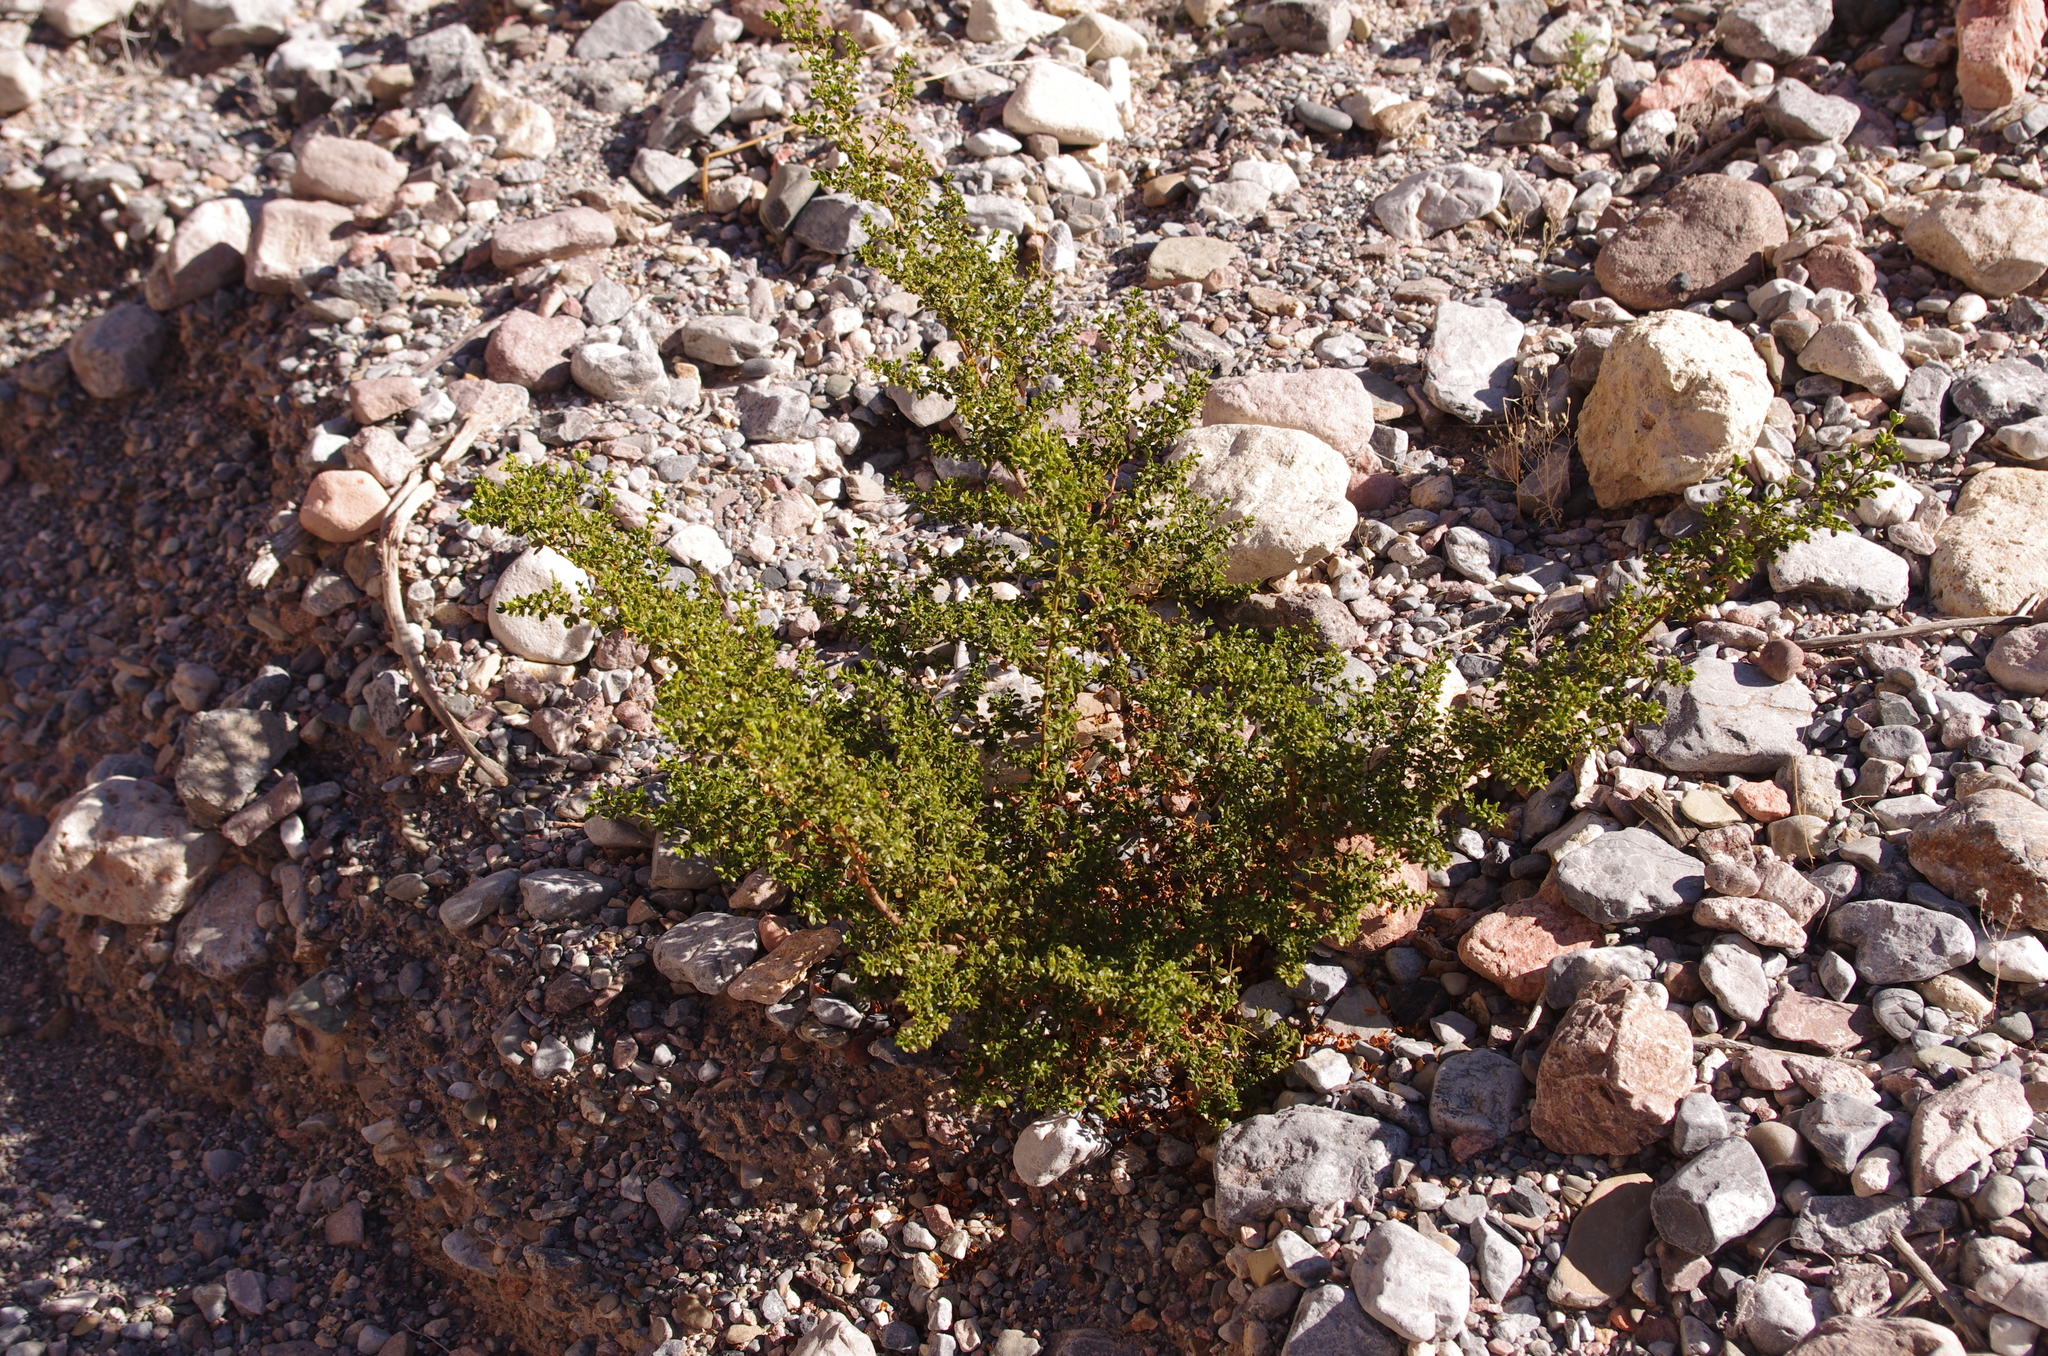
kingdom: Plantae
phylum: Tracheophyta
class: Magnoliopsida
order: Zygophyllales
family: Zygophyllaceae
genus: Larrea
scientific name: Larrea tridentata
